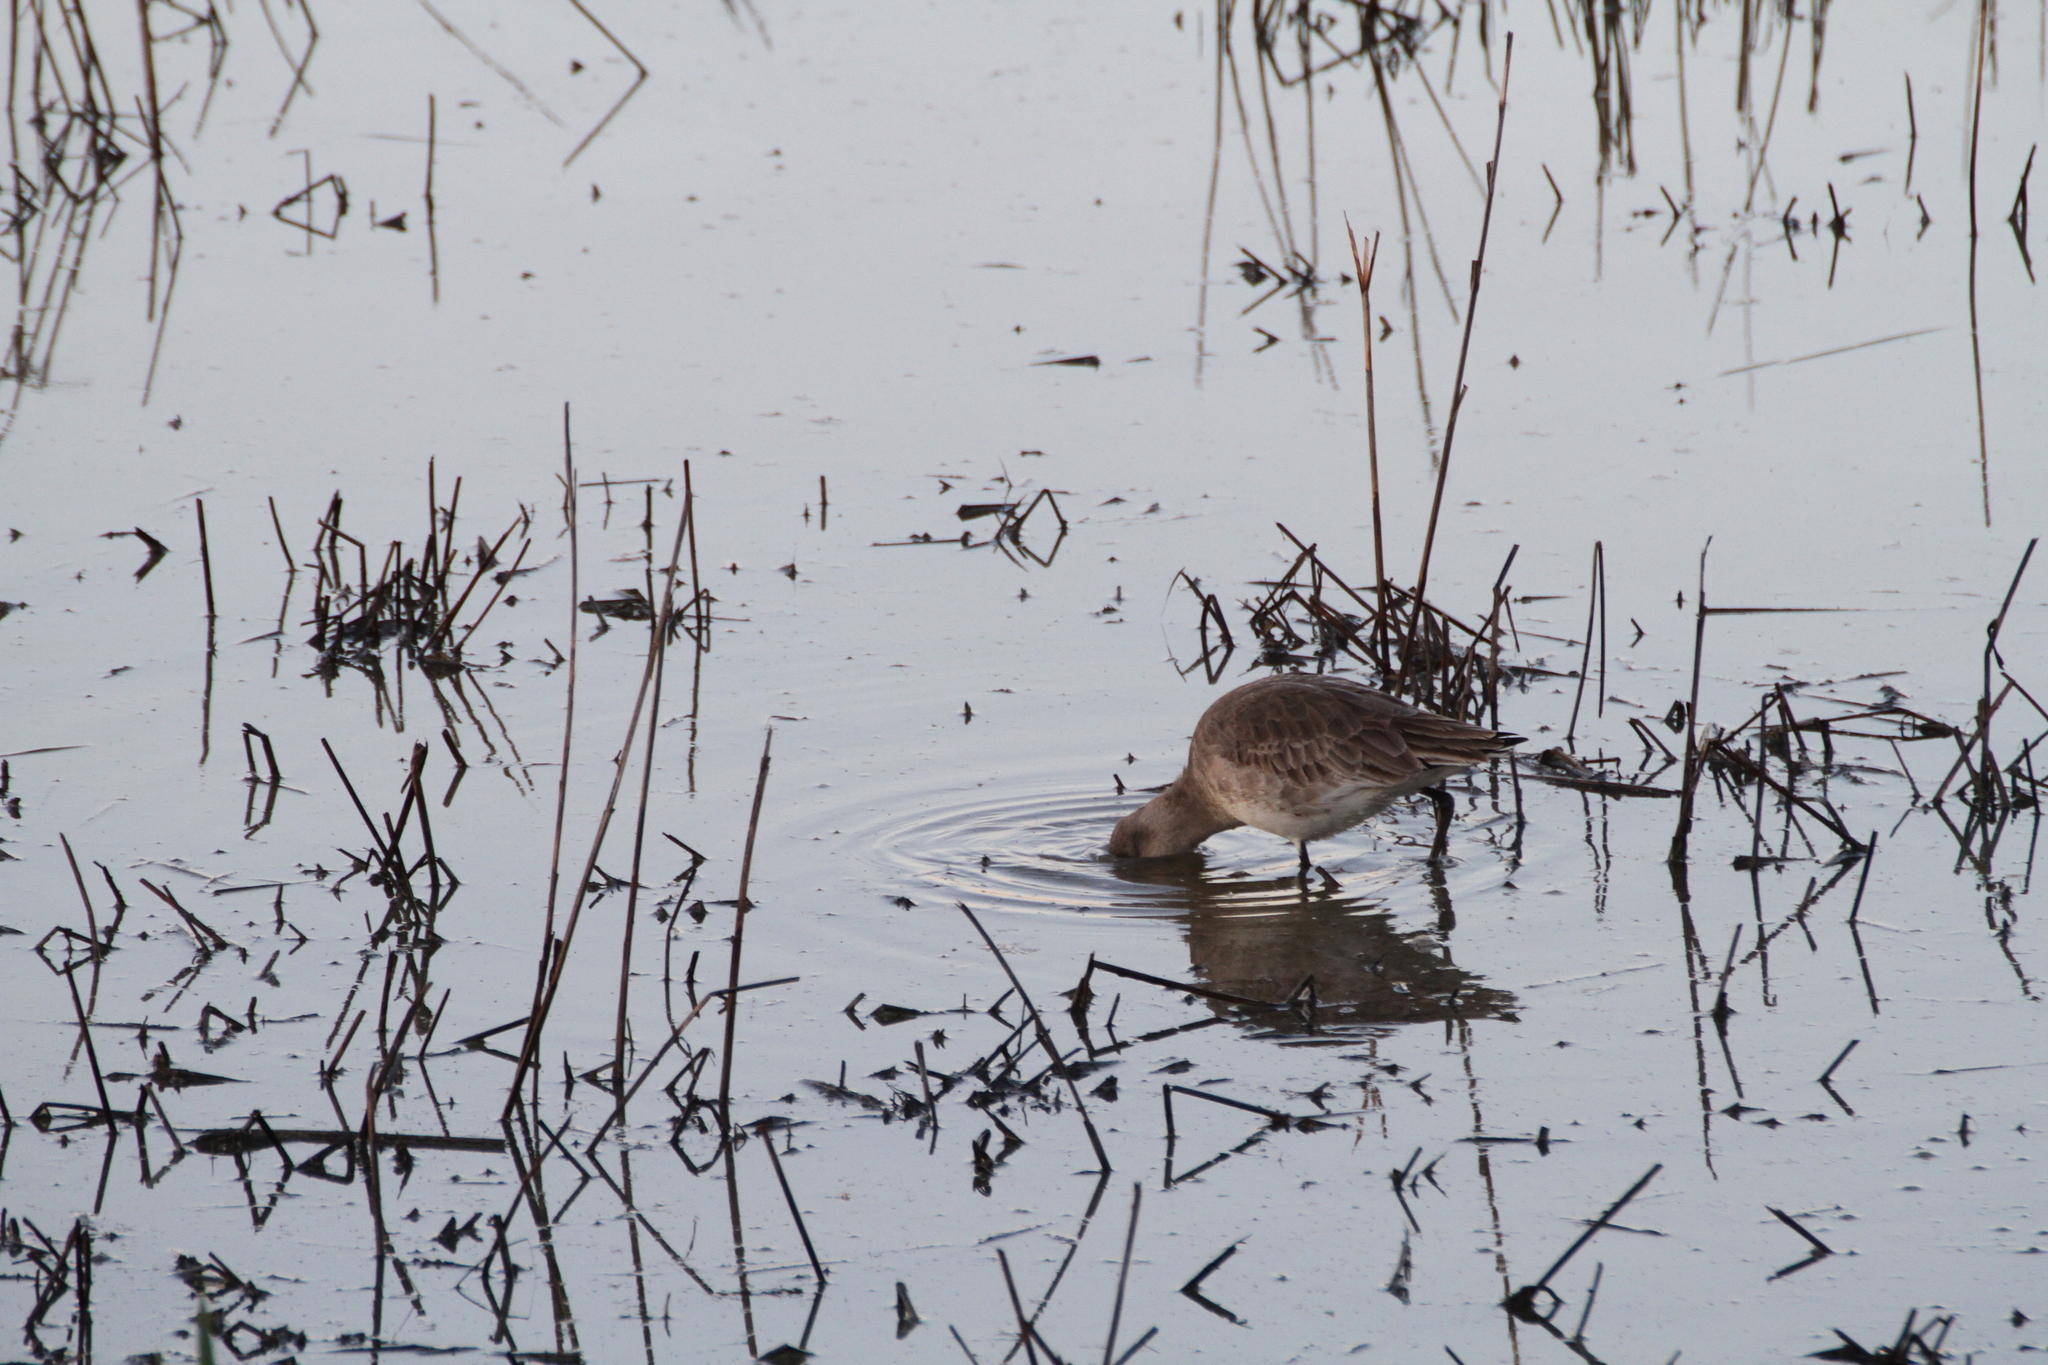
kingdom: Animalia
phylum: Chordata
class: Aves
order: Charadriiformes
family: Scolopacidae
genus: Limosa
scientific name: Limosa limosa
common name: Black-tailed godwit
